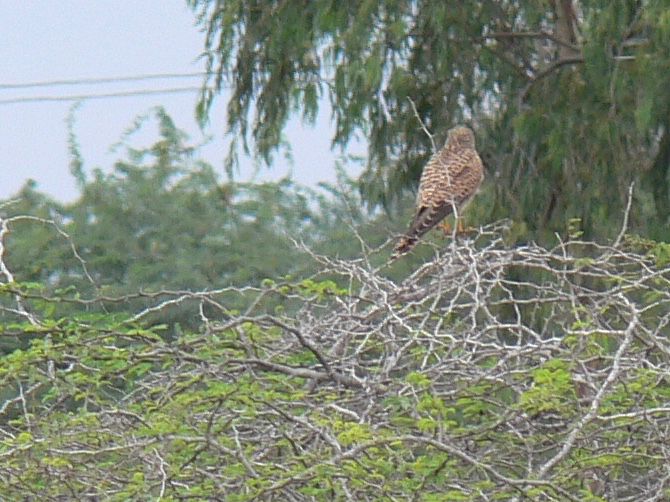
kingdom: Animalia
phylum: Chordata
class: Aves
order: Falconiformes
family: Falconidae
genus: Falco
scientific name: Falco tinnunculus
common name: Common kestrel
